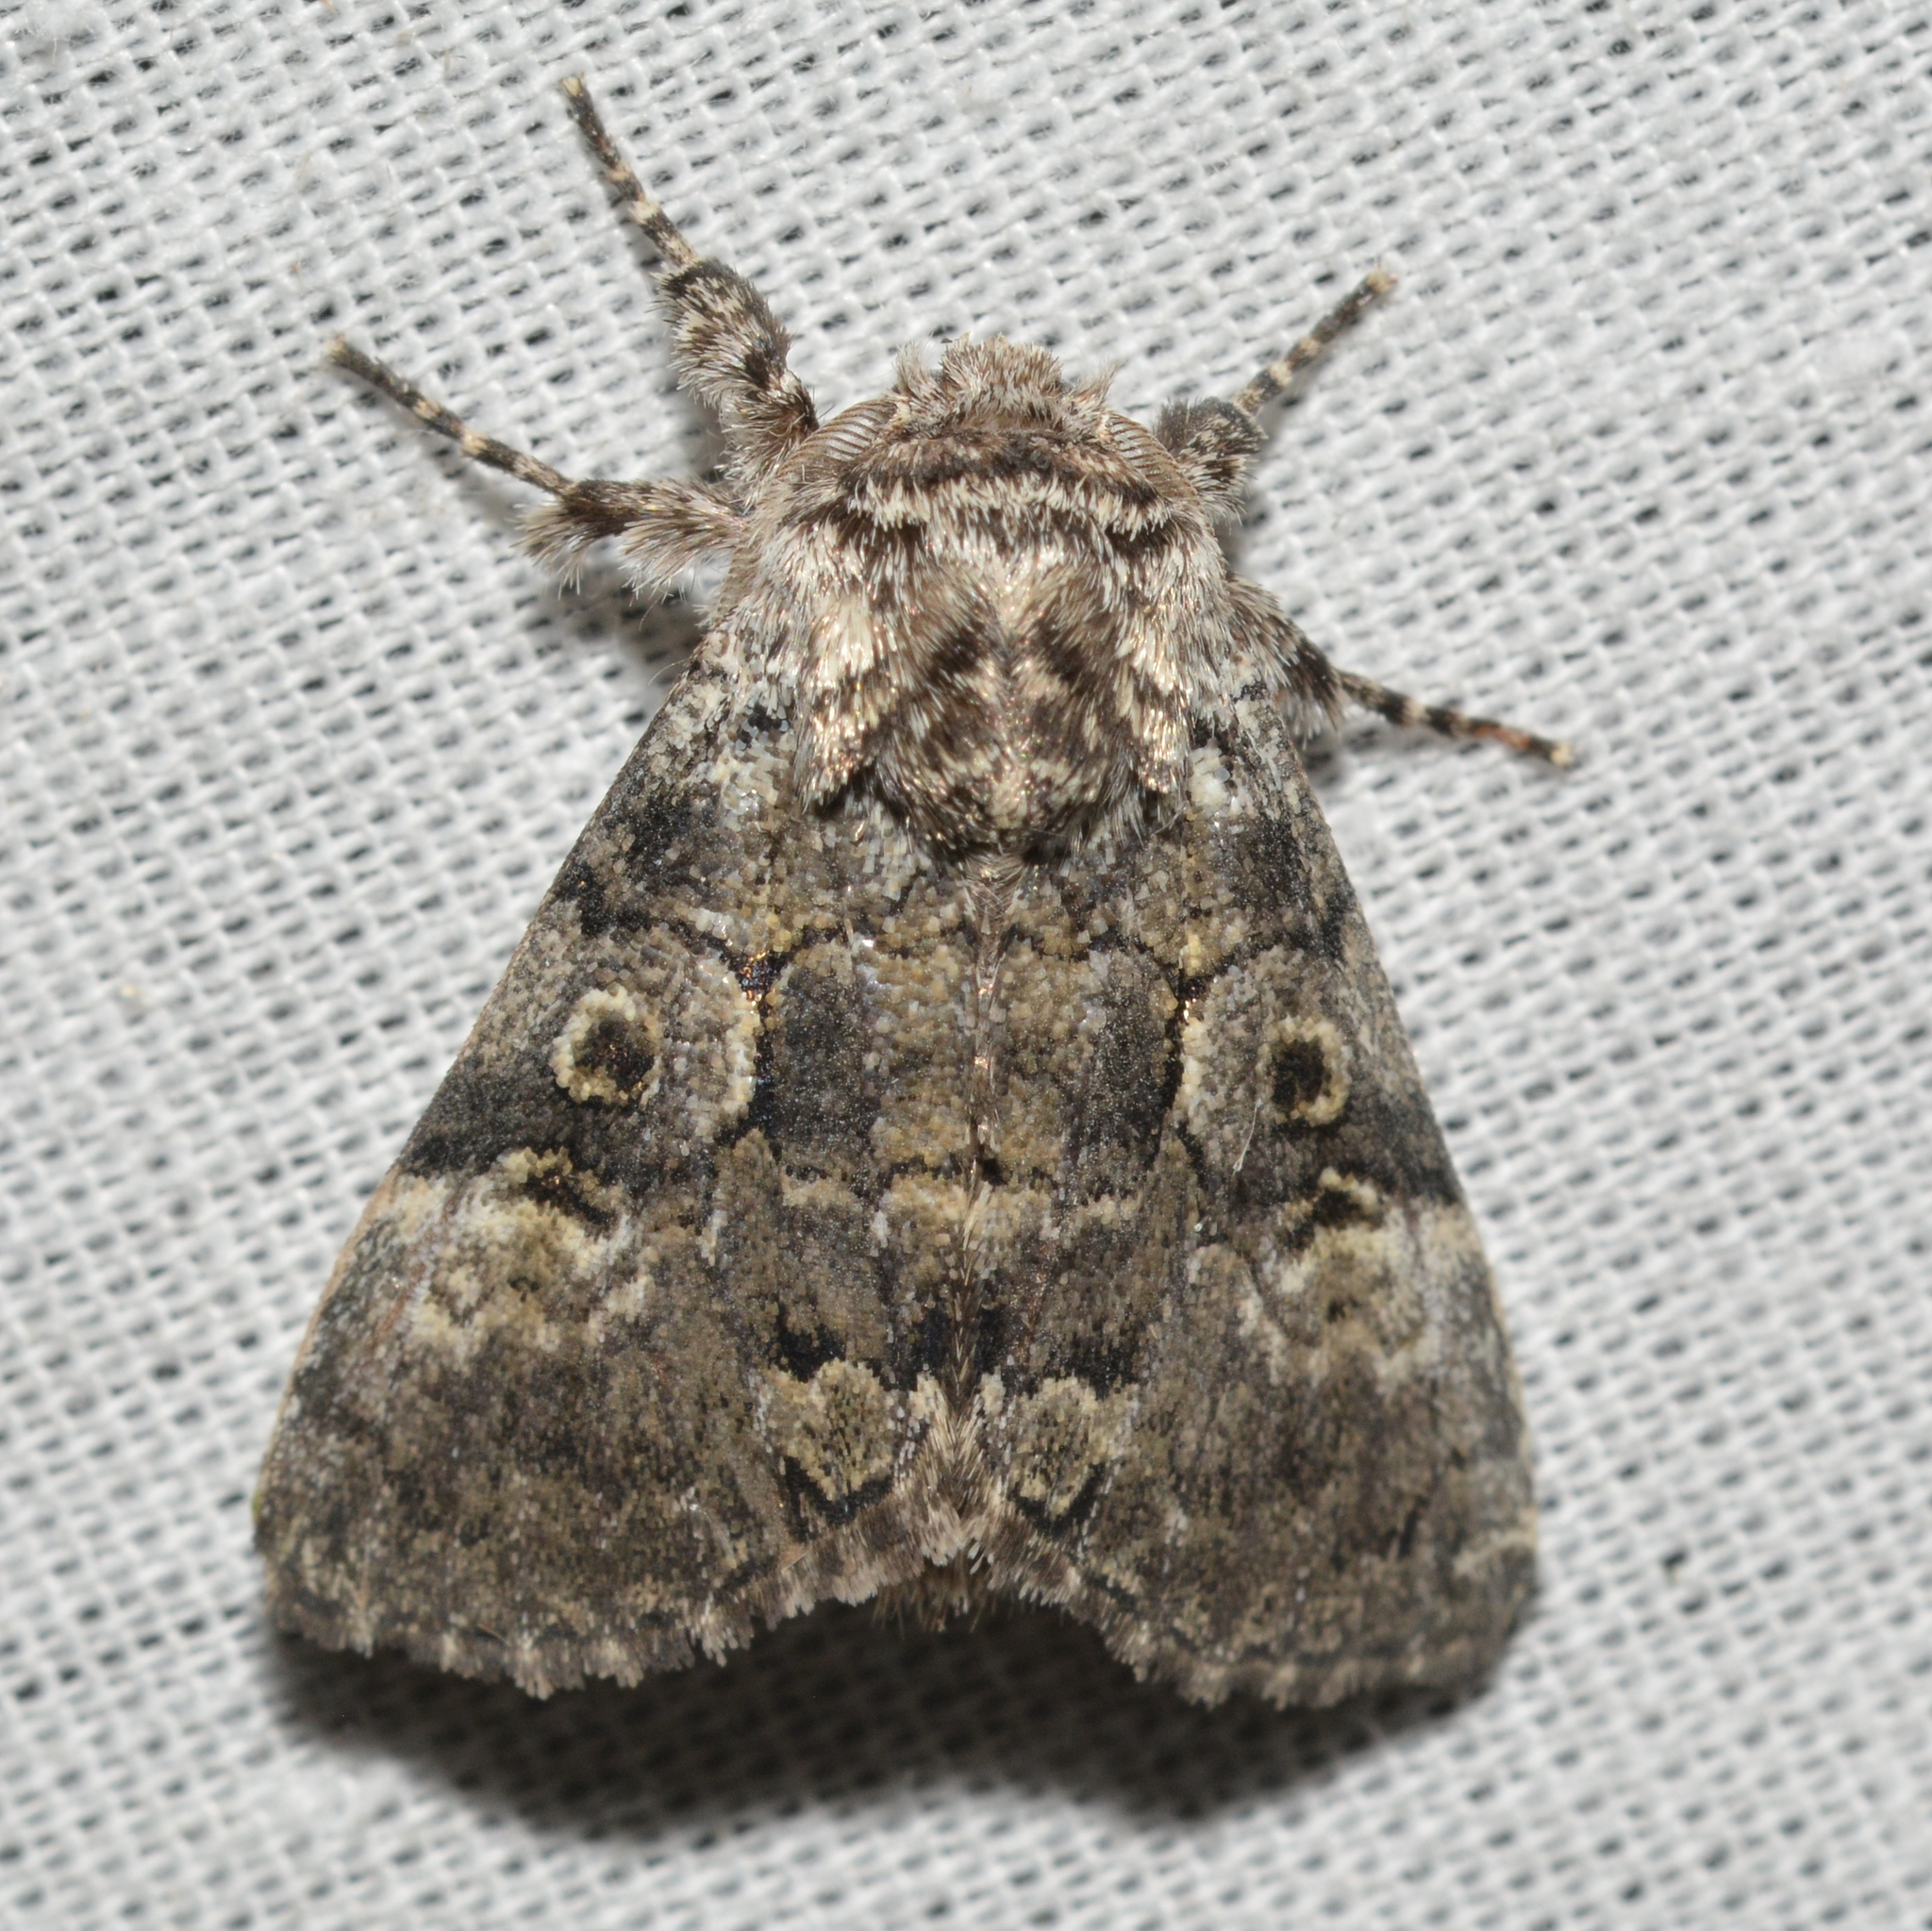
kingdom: Animalia
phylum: Arthropoda
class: Insecta
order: Lepidoptera
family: Noctuidae
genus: Charadra
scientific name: Charadra deridens
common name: Marbled tuffet
